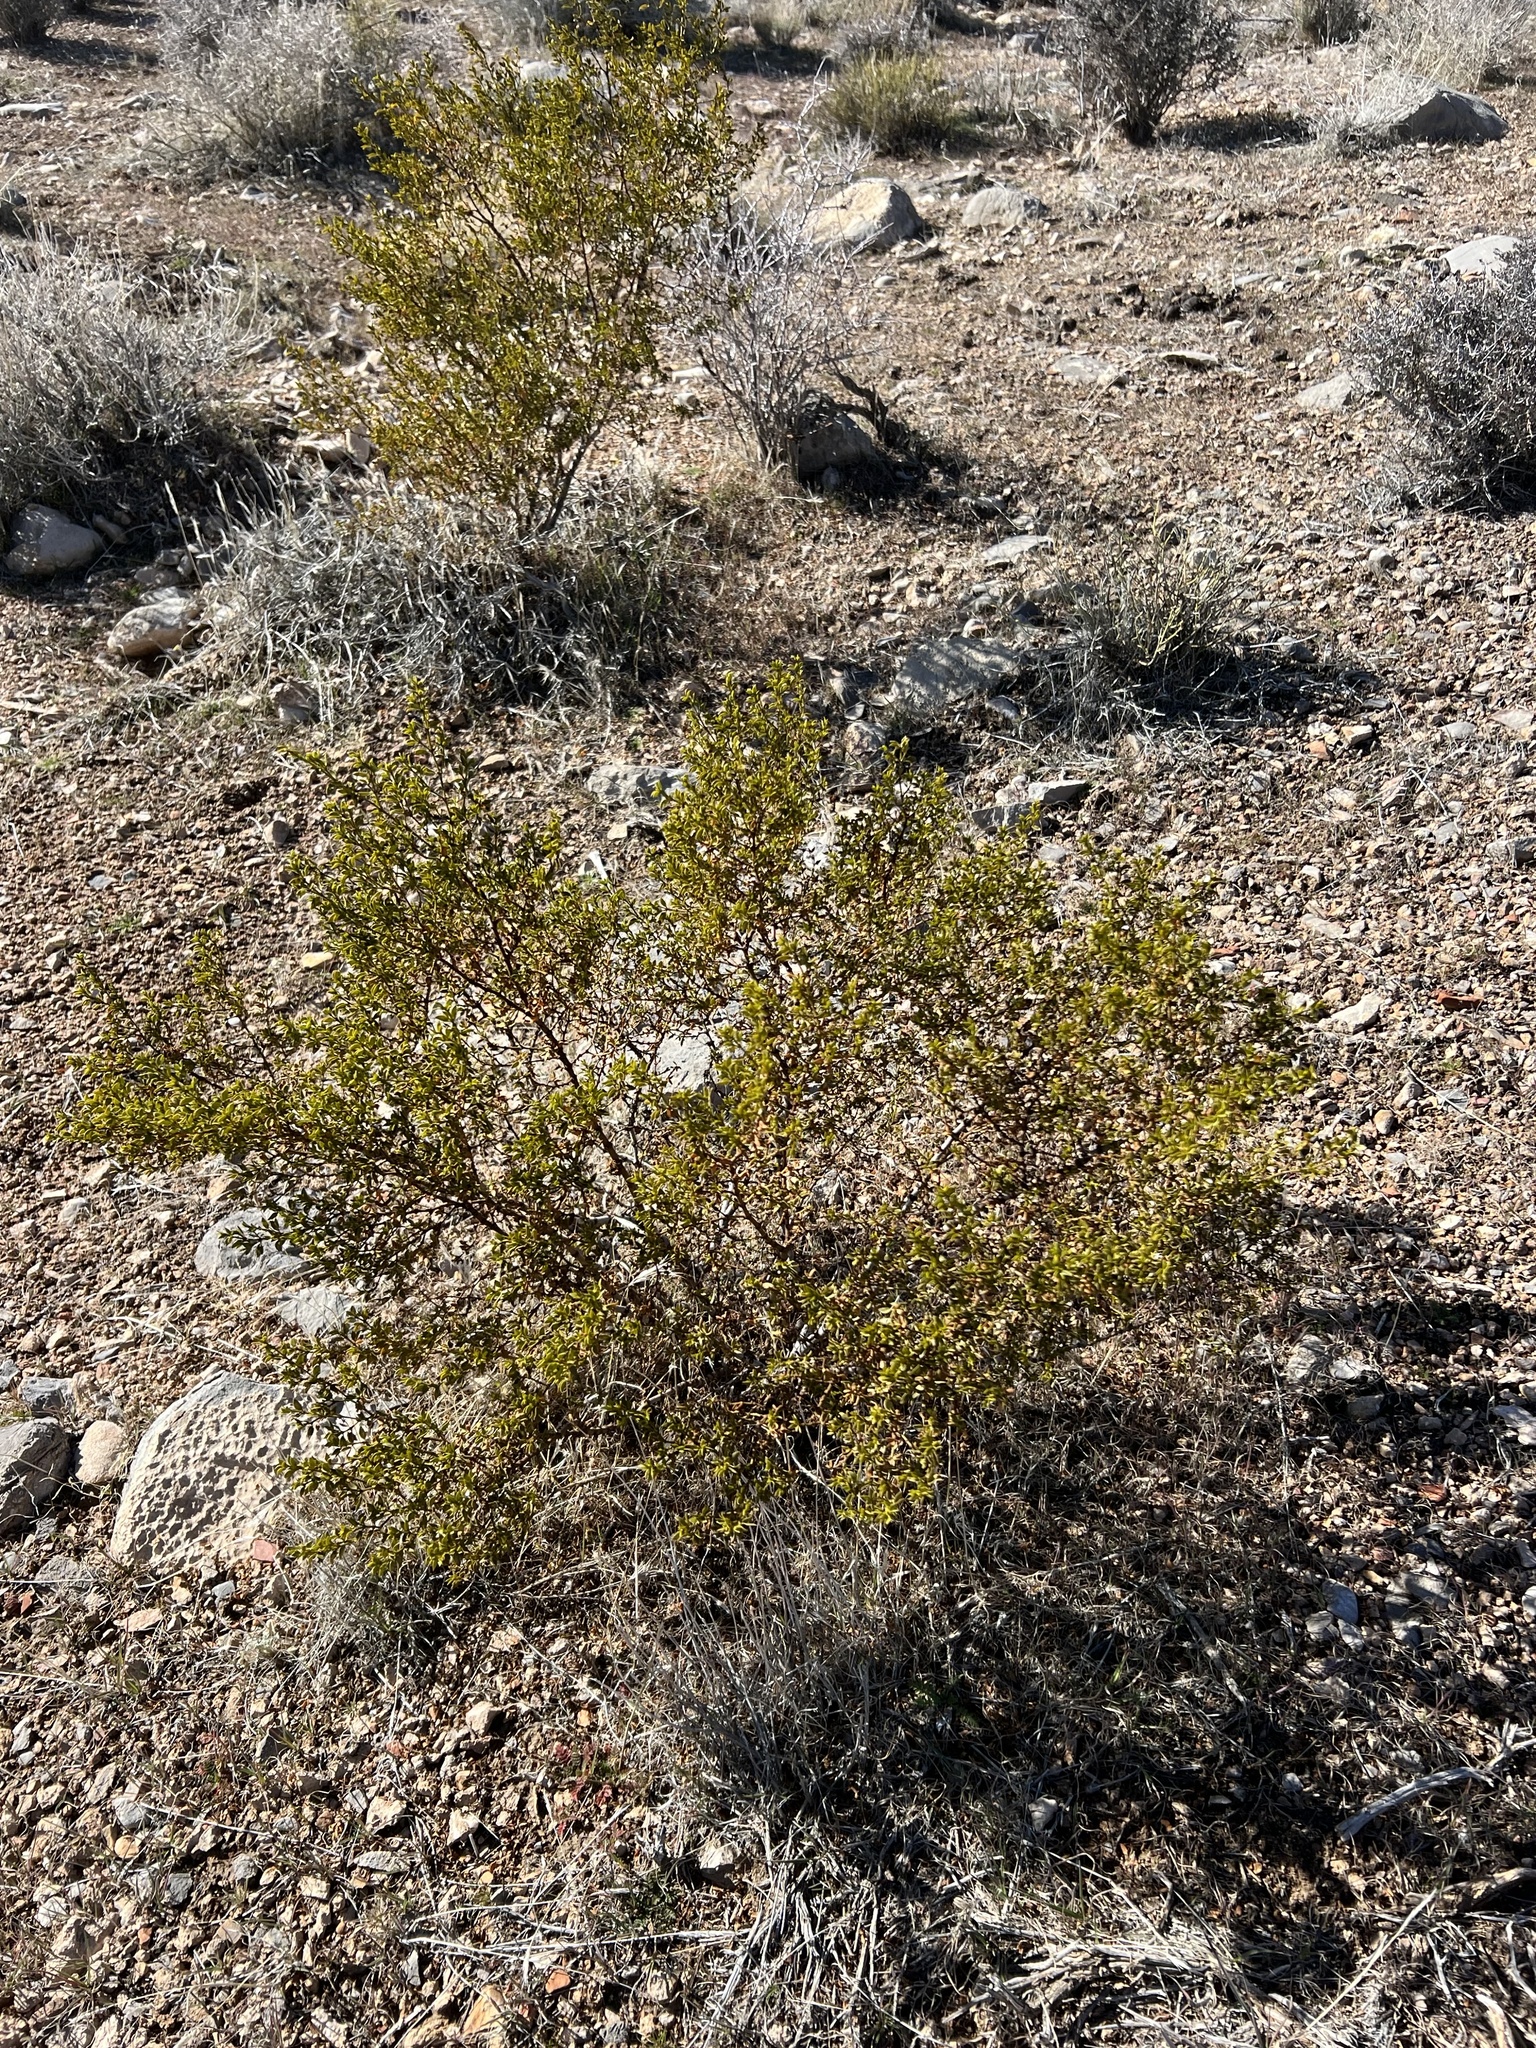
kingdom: Plantae
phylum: Tracheophyta
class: Magnoliopsida
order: Zygophyllales
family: Zygophyllaceae
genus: Larrea
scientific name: Larrea tridentata
